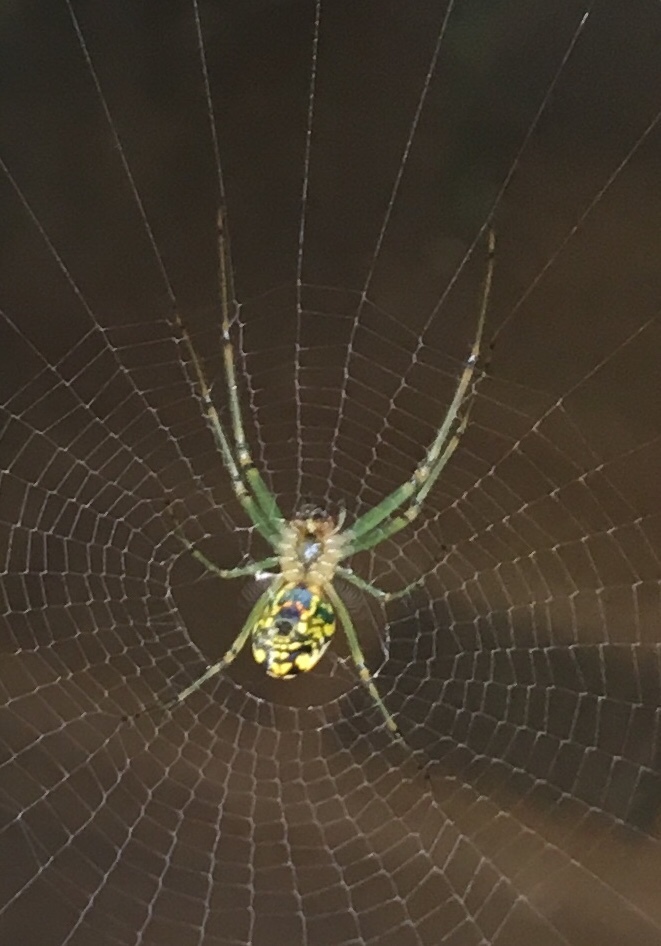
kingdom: Animalia
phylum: Arthropoda
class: Arachnida
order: Araneae
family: Tetragnathidae
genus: Leucauge
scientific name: Leucauge venusta
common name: Longjawed orb weavers
